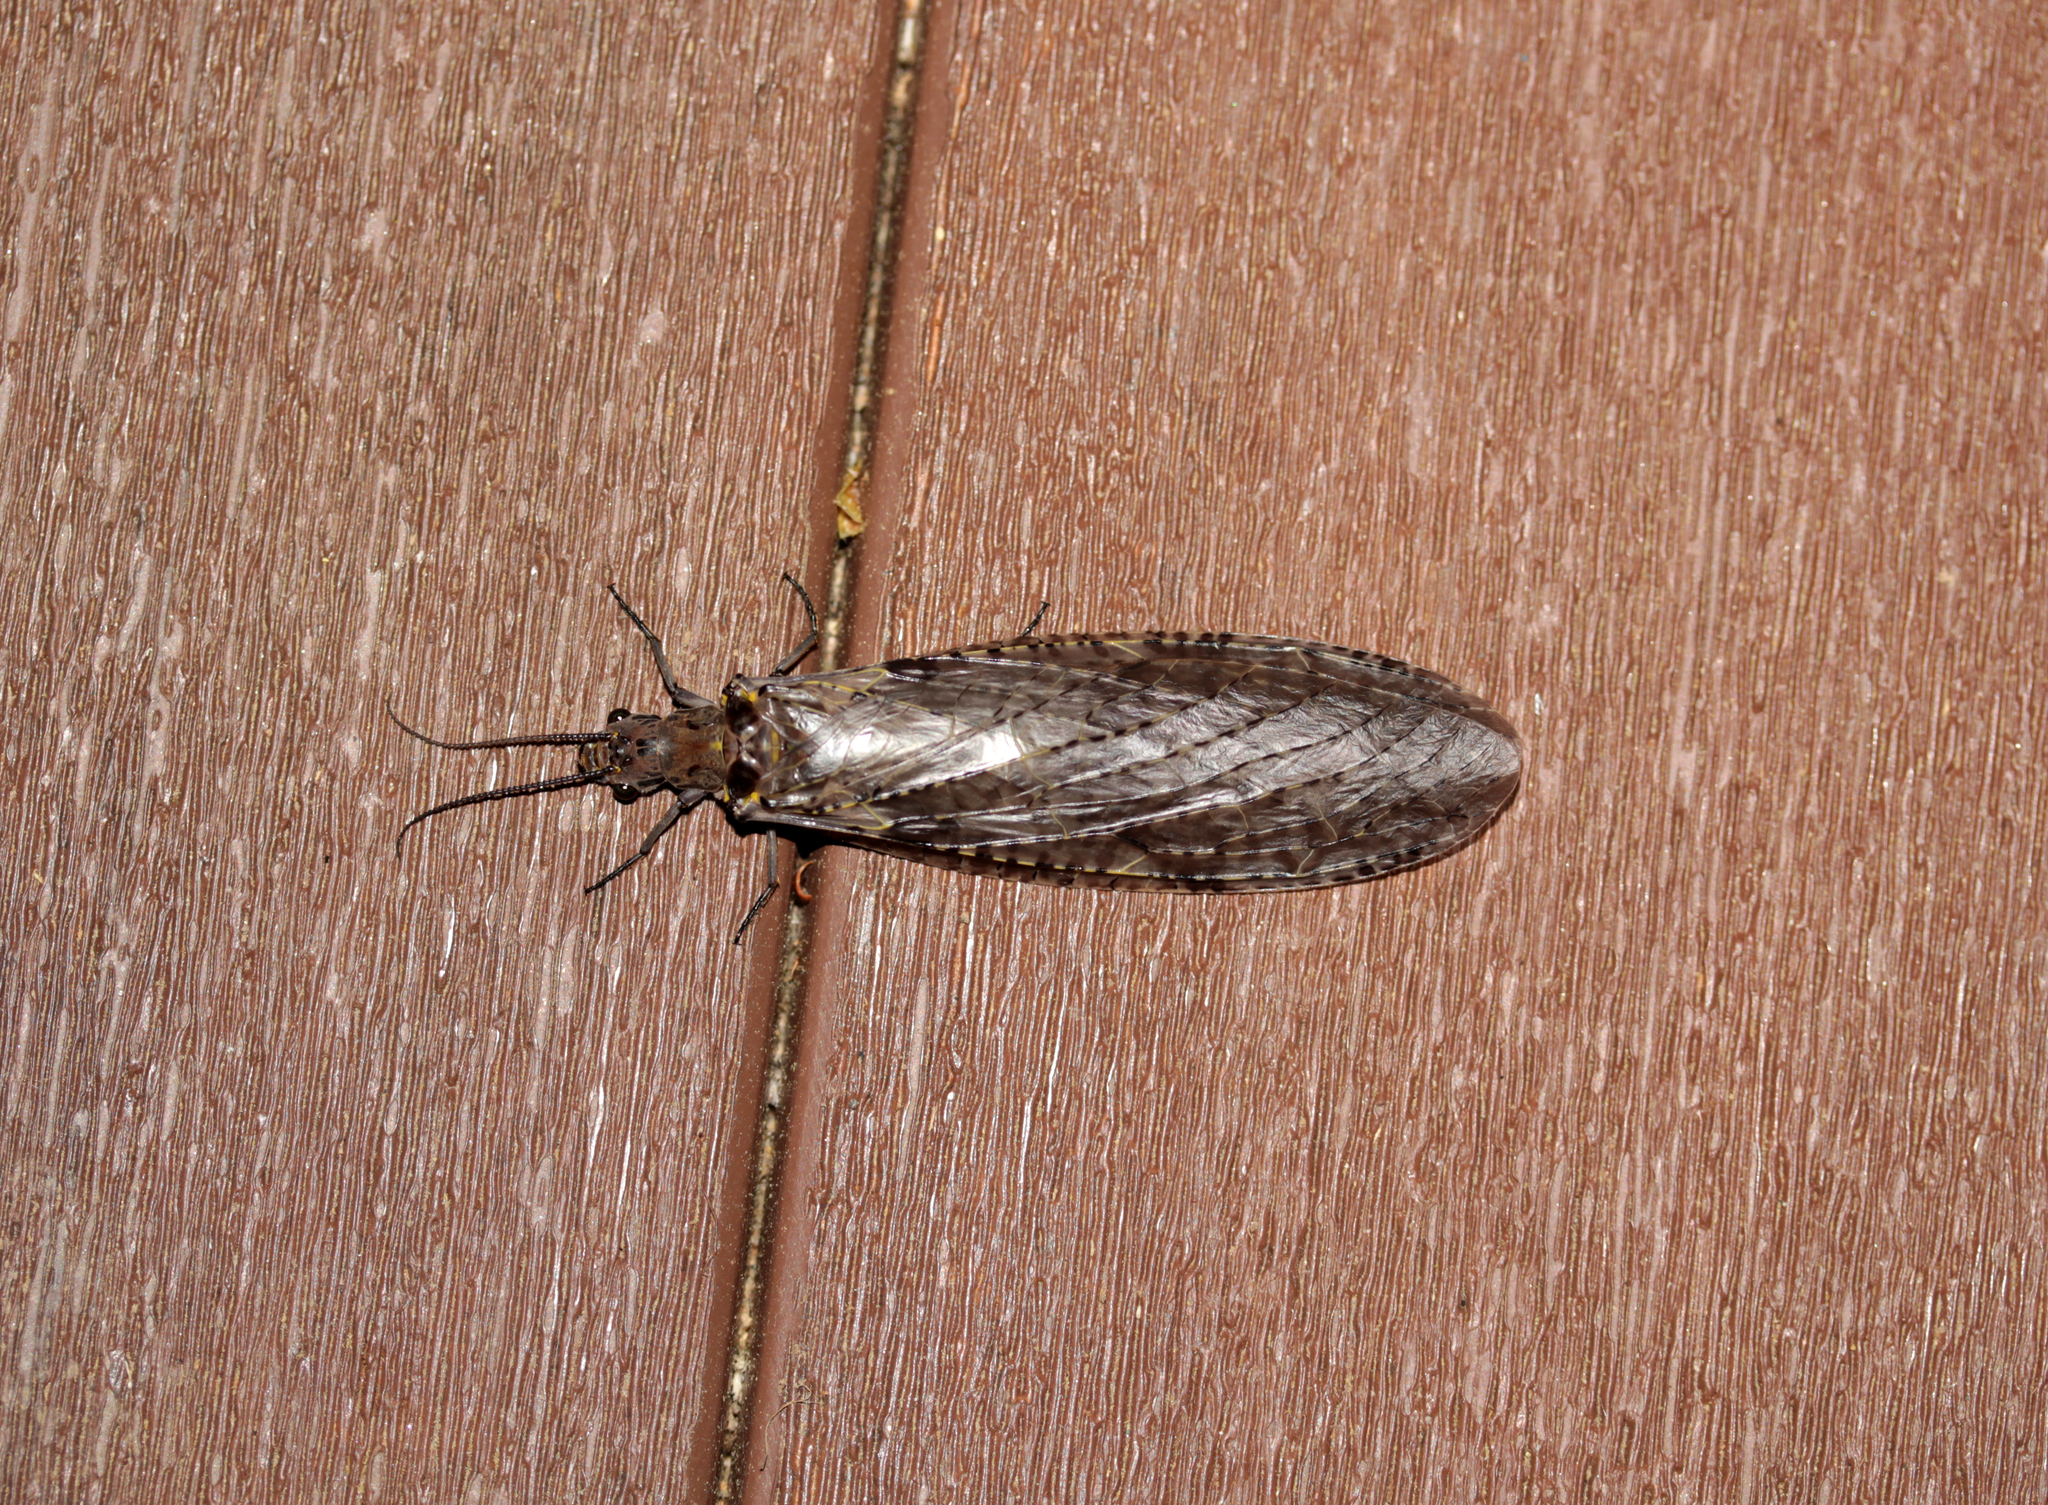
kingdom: Animalia
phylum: Arthropoda
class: Insecta
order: Megaloptera
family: Corydalidae
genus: Chauliodes
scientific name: Chauliodes rastricornis
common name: Spring fishfly
